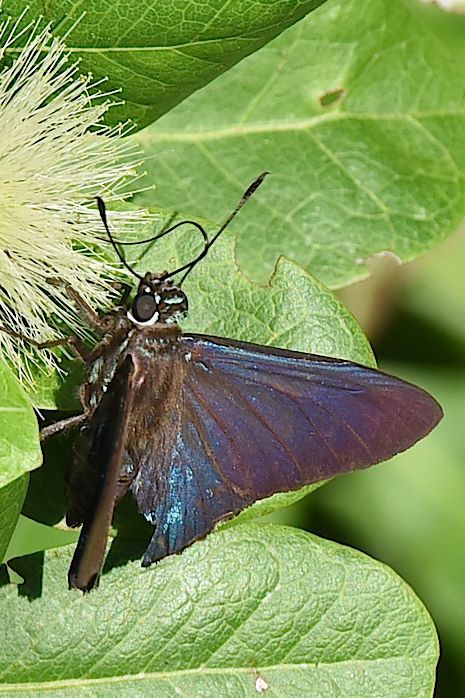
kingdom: Animalia
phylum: Arthropoda
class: Insecta
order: Lepidoptera
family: Hesperiidae
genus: Phocides
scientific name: Phocides pigmalion
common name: Mangrove skipper
